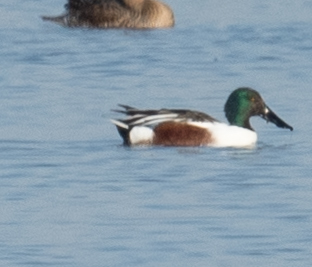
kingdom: Animalia
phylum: Chordata
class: Aves
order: Anseriformes
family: Anatidae
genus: Spatula
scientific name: Spatula clypeata
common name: Northern shoveler
